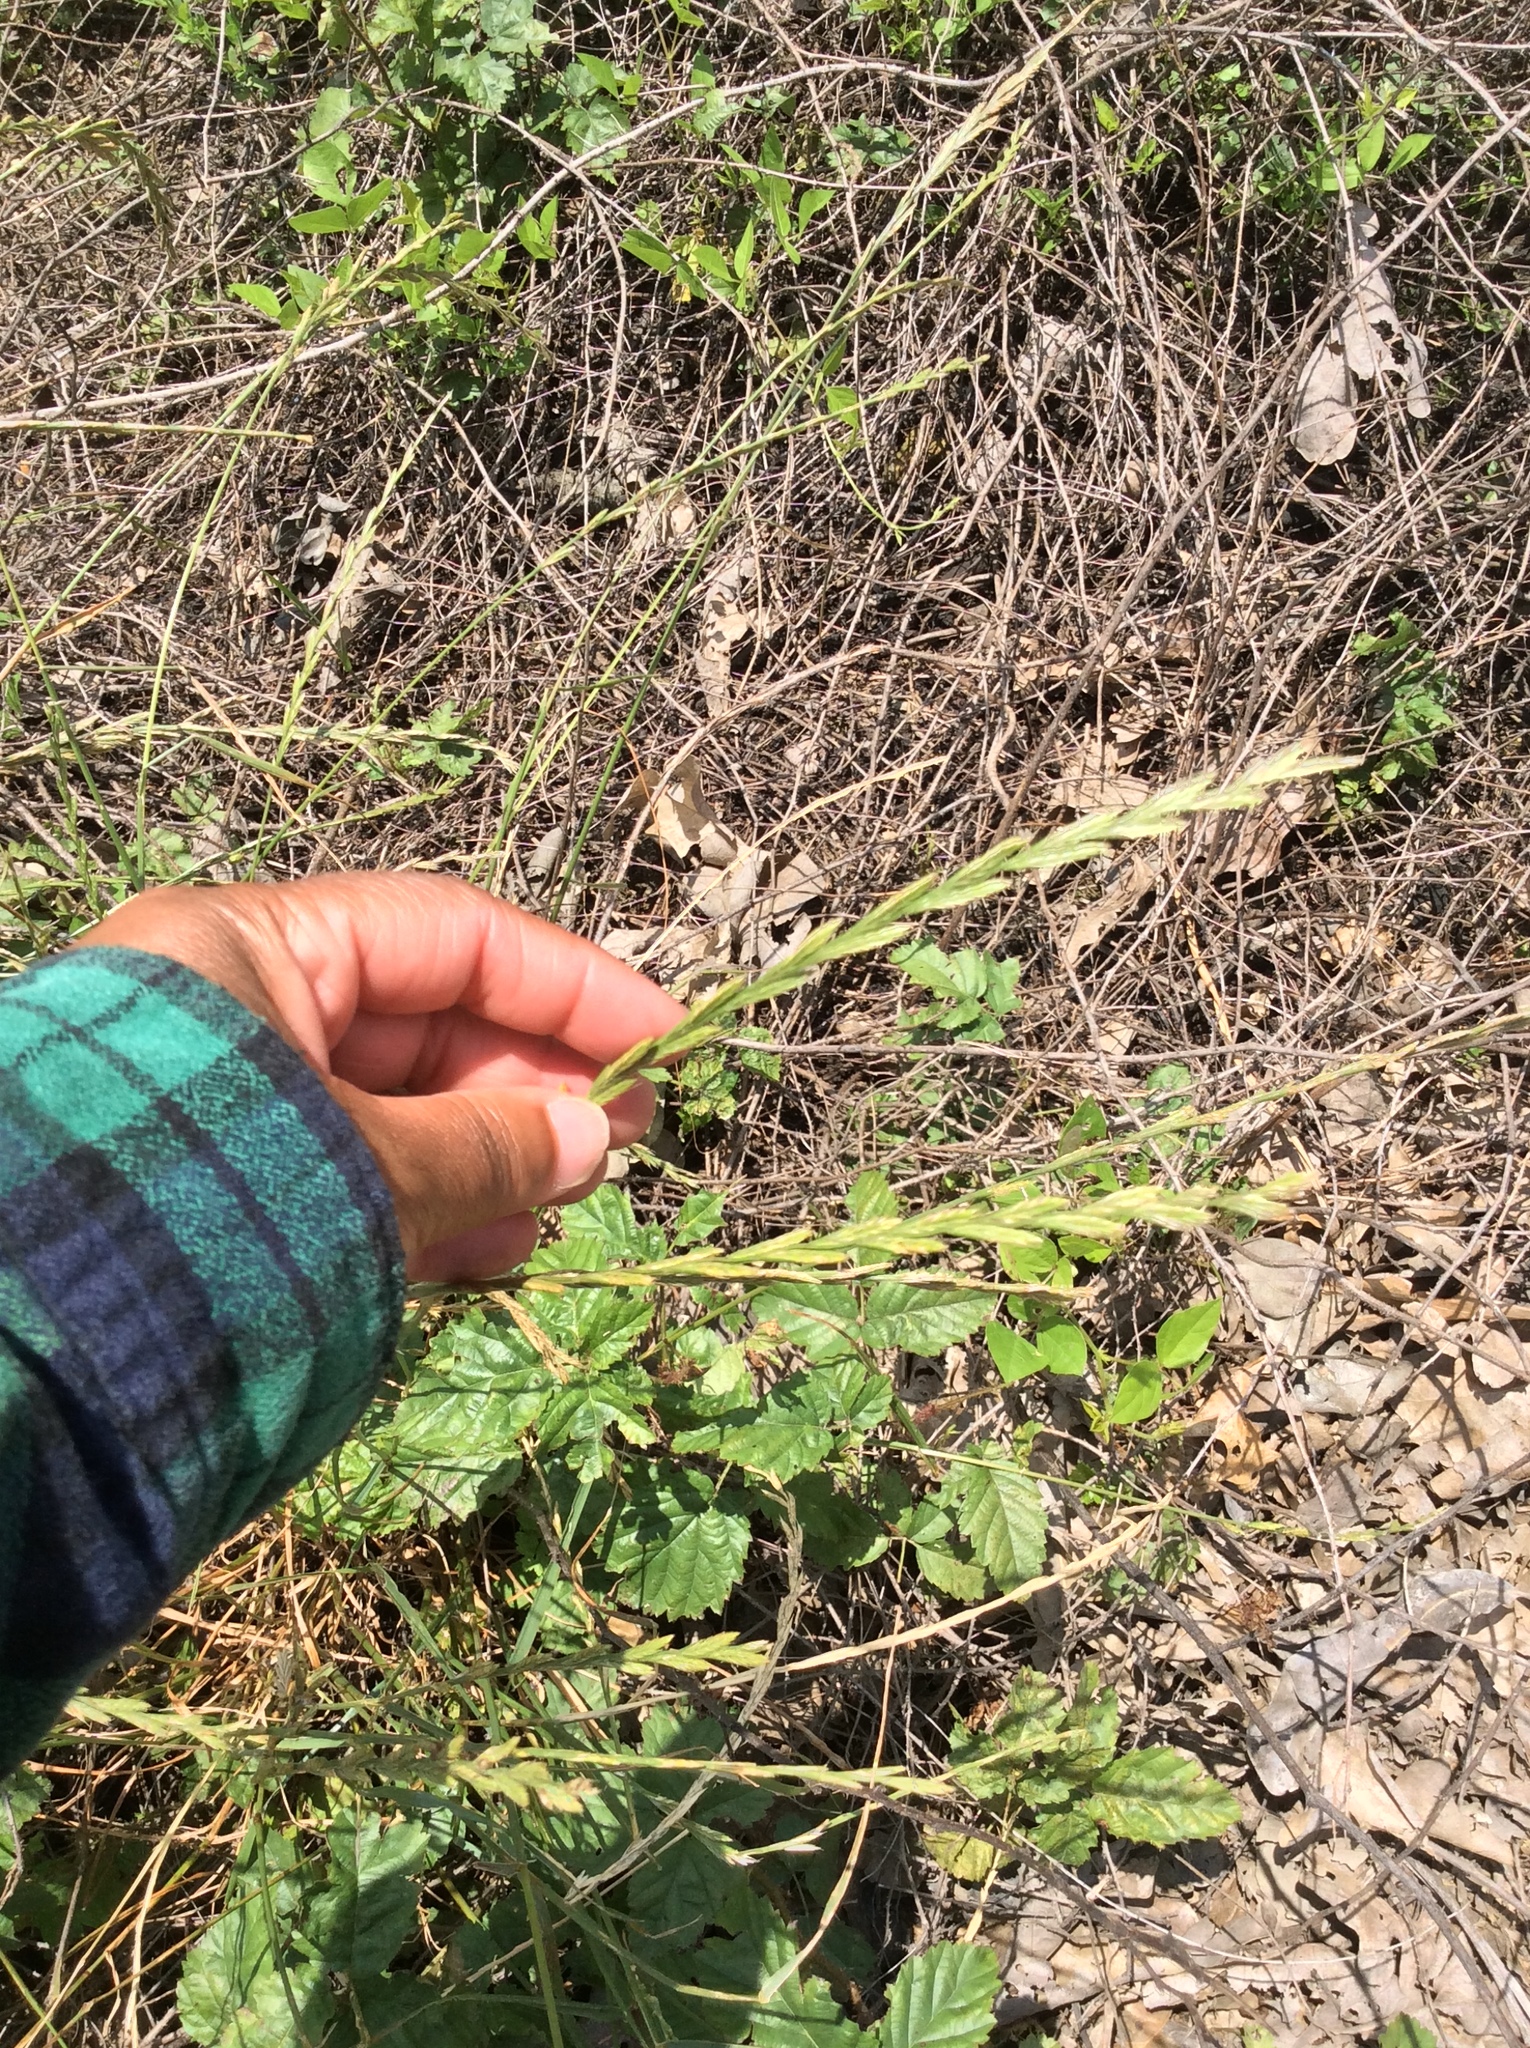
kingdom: Plantae
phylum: Tracheophyta
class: Liliopsida
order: Poales
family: Poaceae
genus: Lolium
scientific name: Lolium perenne
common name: Perennial ryegrass
